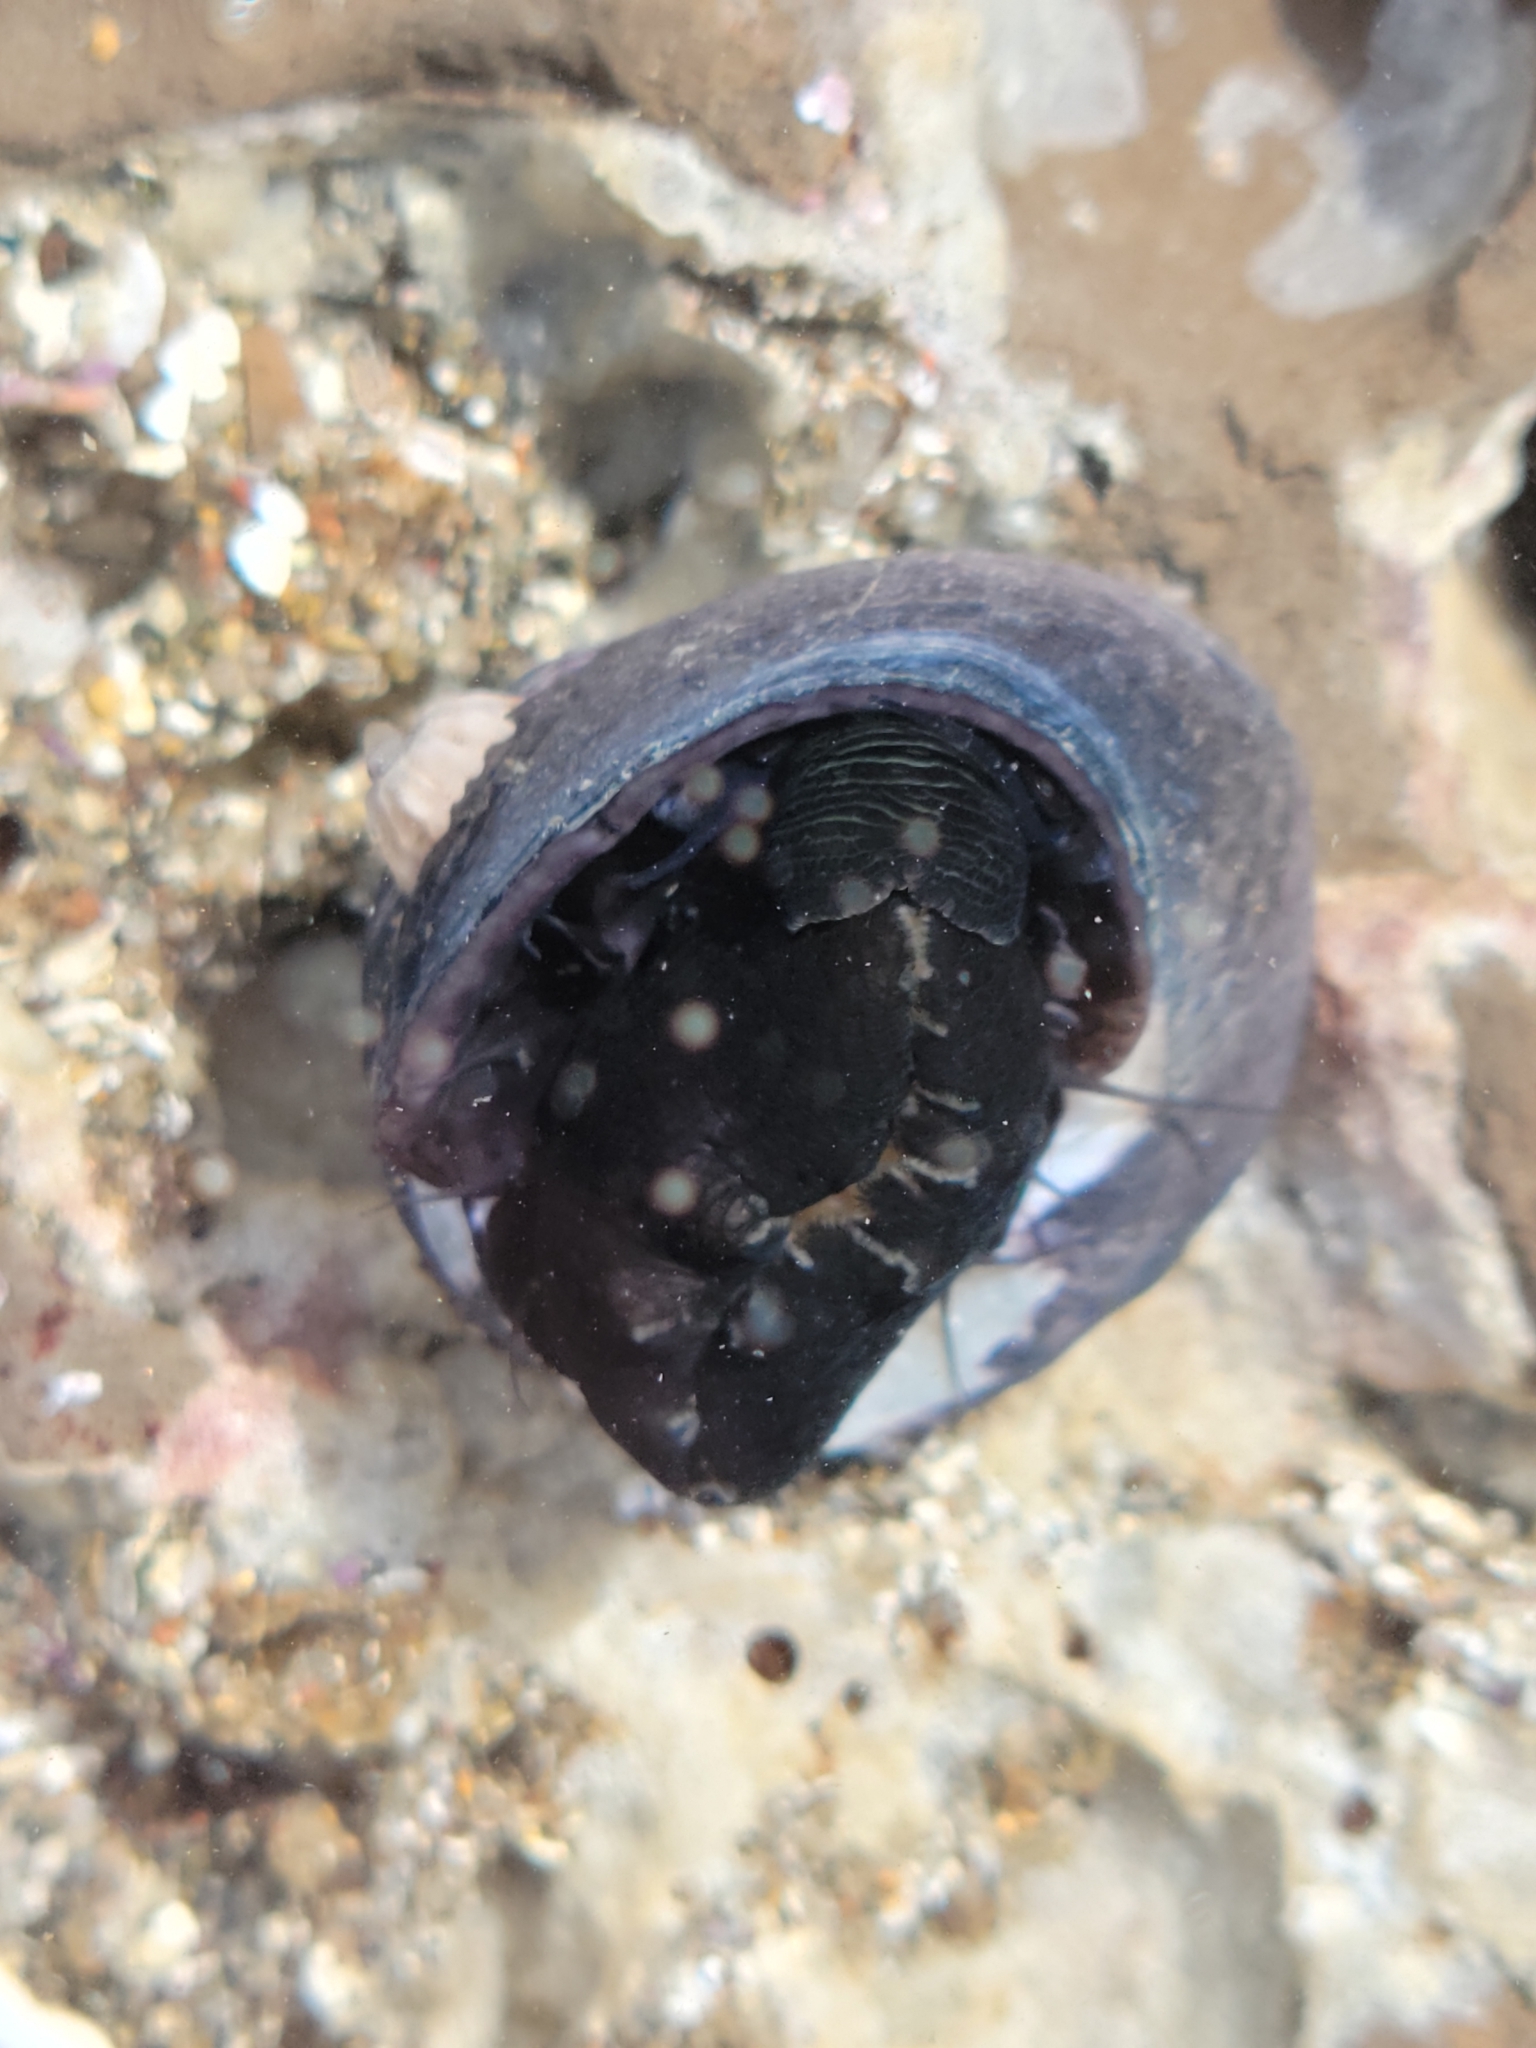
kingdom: Animalia
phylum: Mollusca
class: Gastropoda
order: Trochida
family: Tegulidae
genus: Tegula
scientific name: Tegula funebralis
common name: Black tegula
